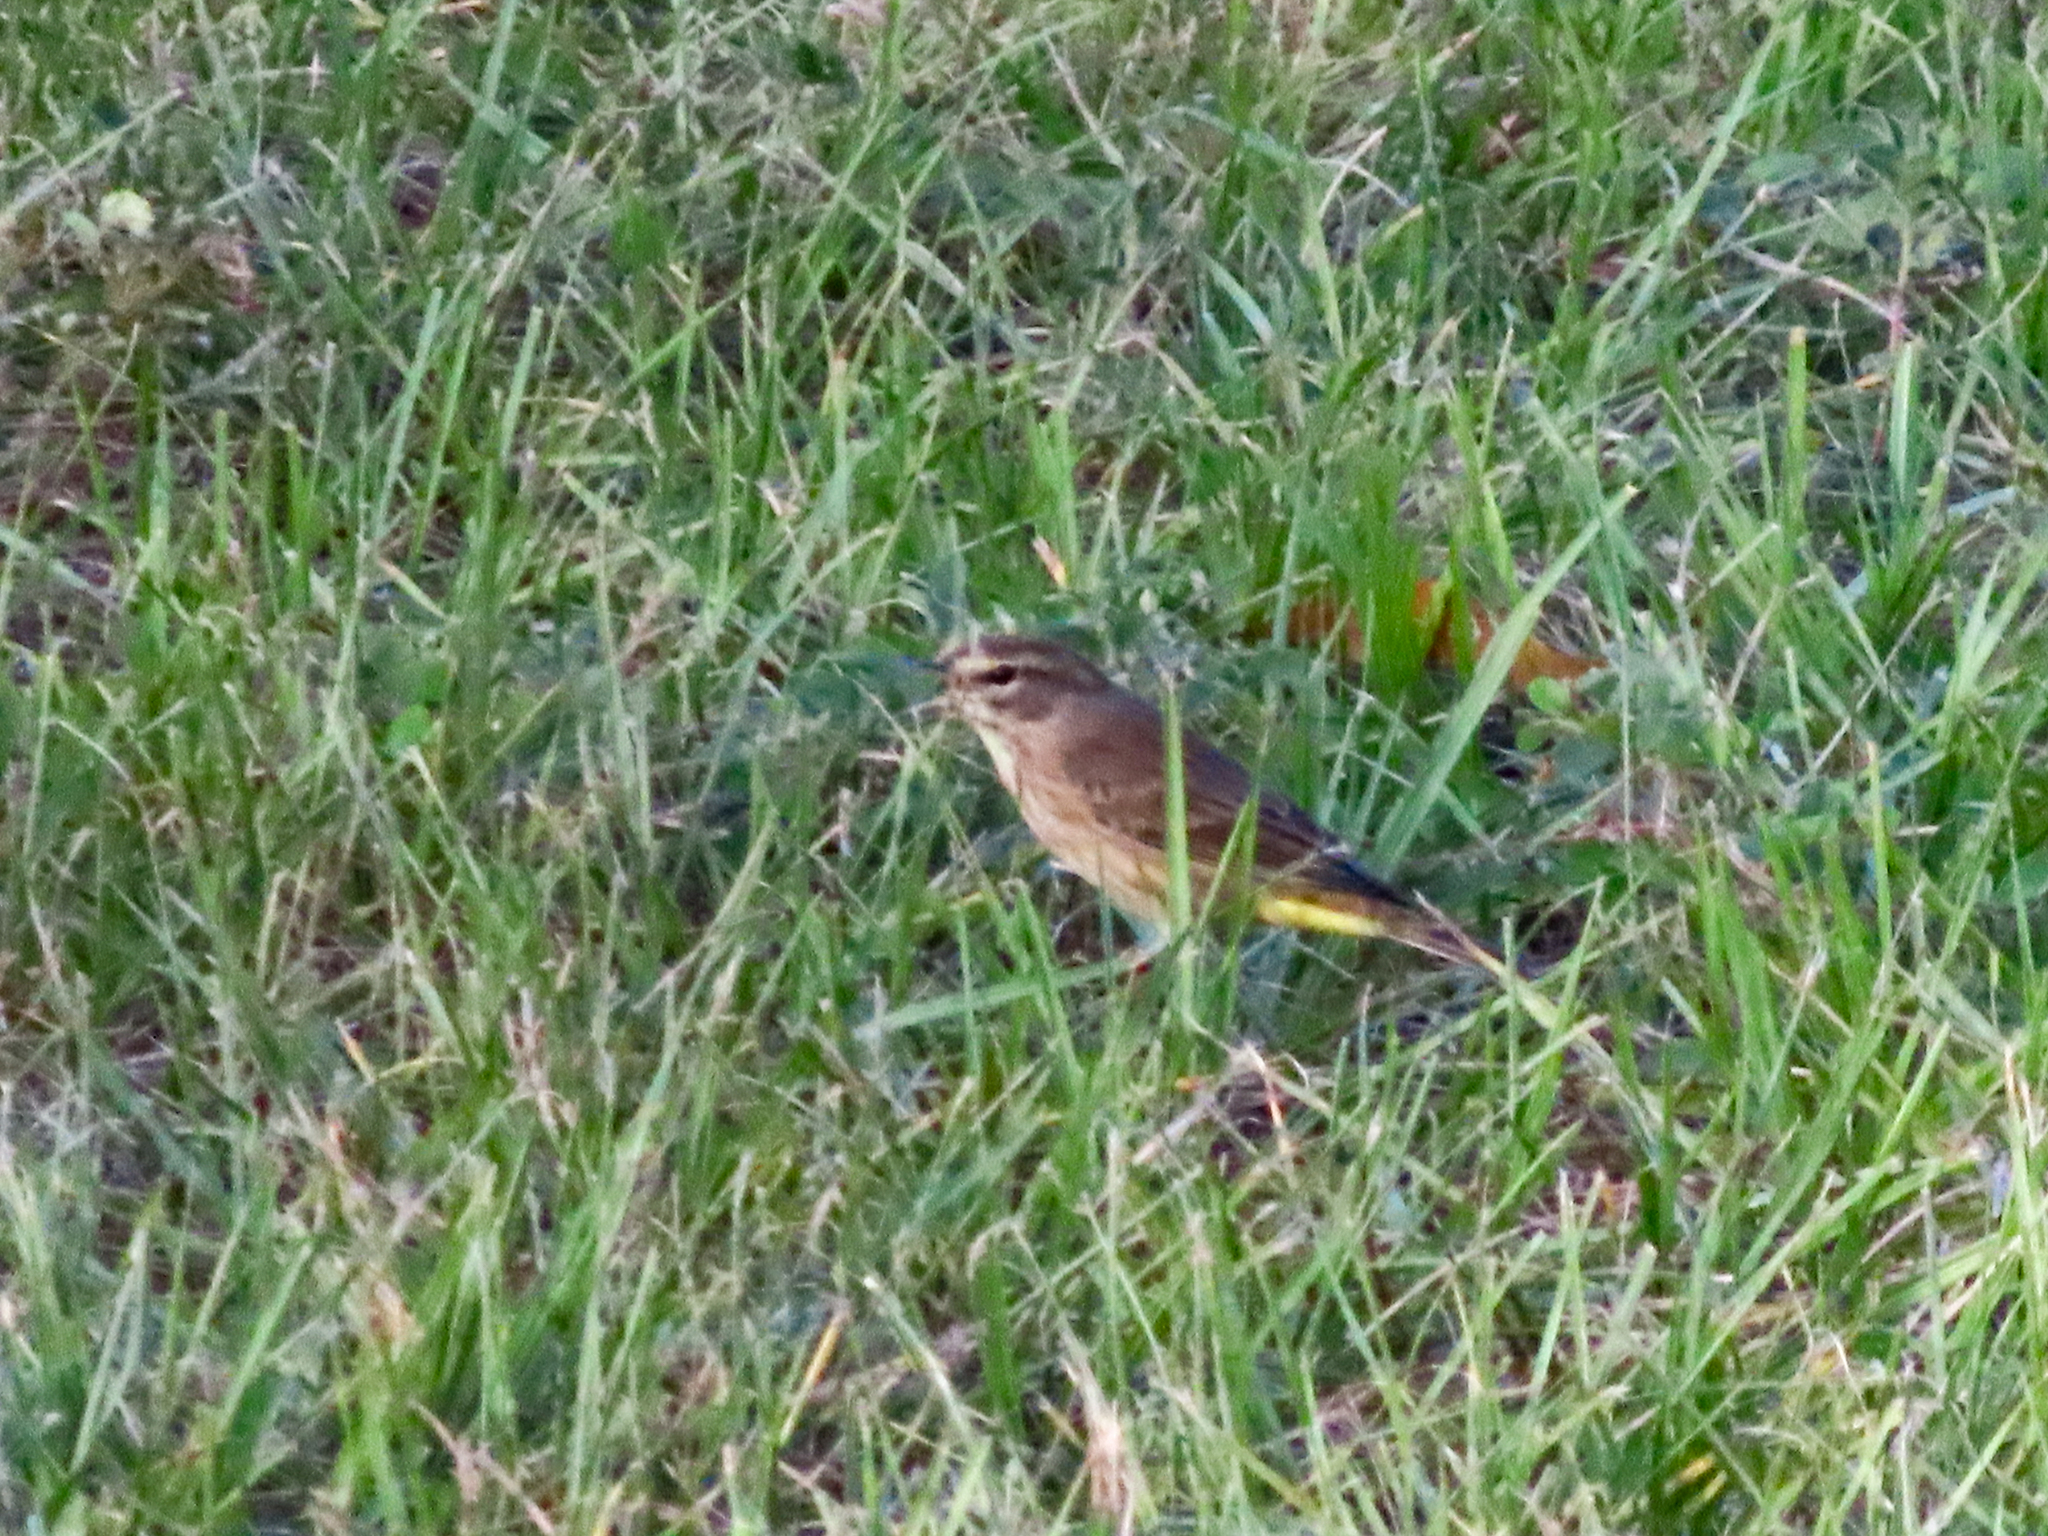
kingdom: Animalia
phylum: Chordata
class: Aves
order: Passeriformes
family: Parulidae
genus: Setophaga
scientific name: Setophaga palmarum
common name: Palm warbler
